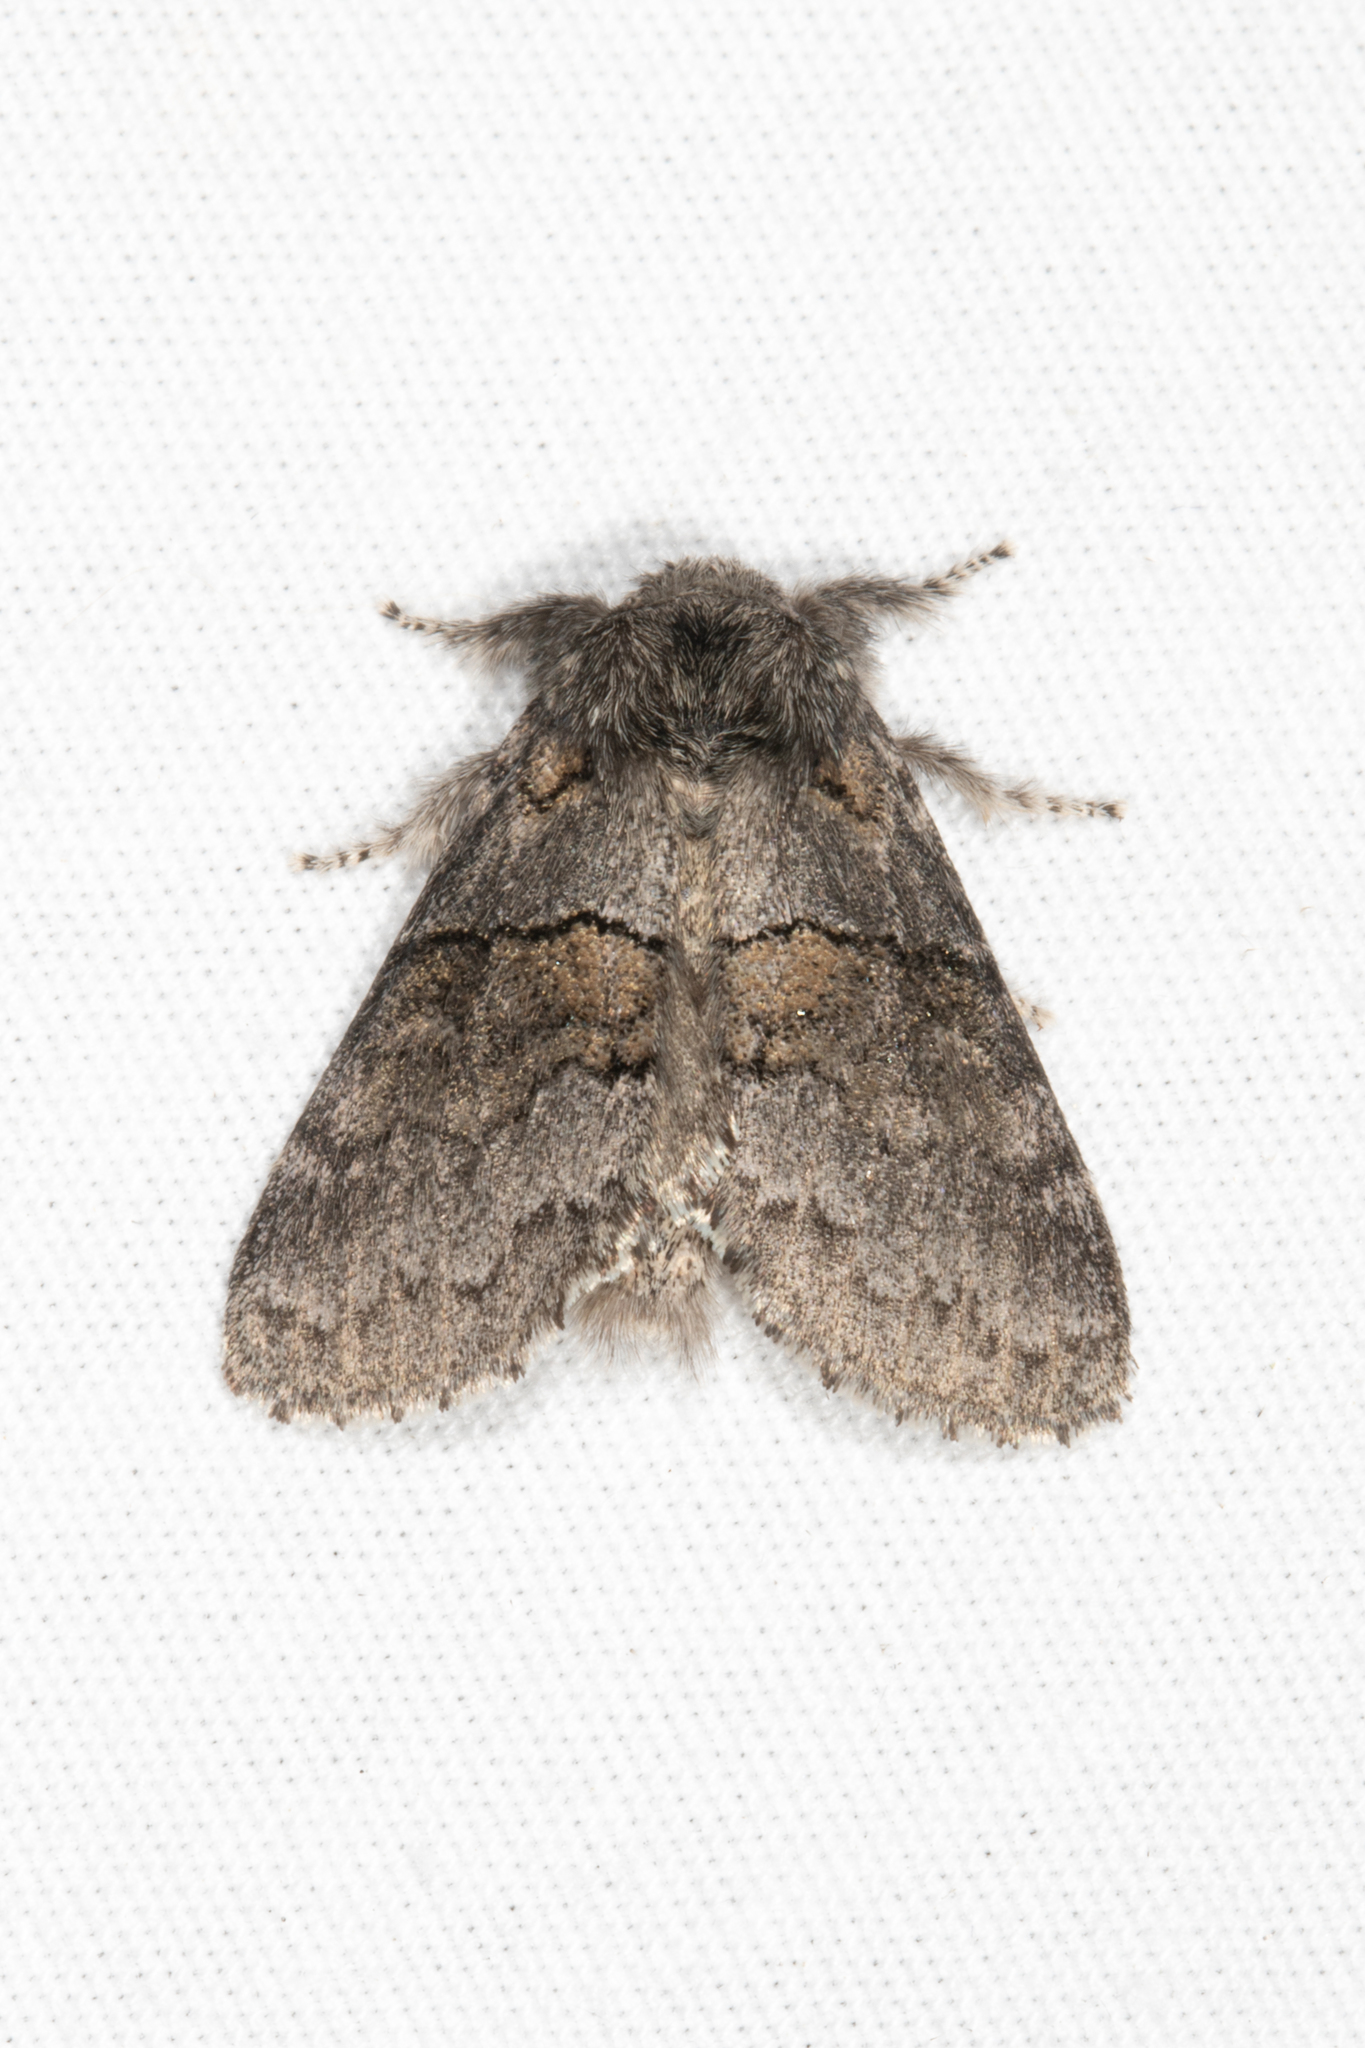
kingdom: Animalia
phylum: Arthropoda
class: Insecta
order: Lepidoptera
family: Notodontidae
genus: Gluphisia
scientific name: Gluphisia septentrionis
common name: Common gluphisia
